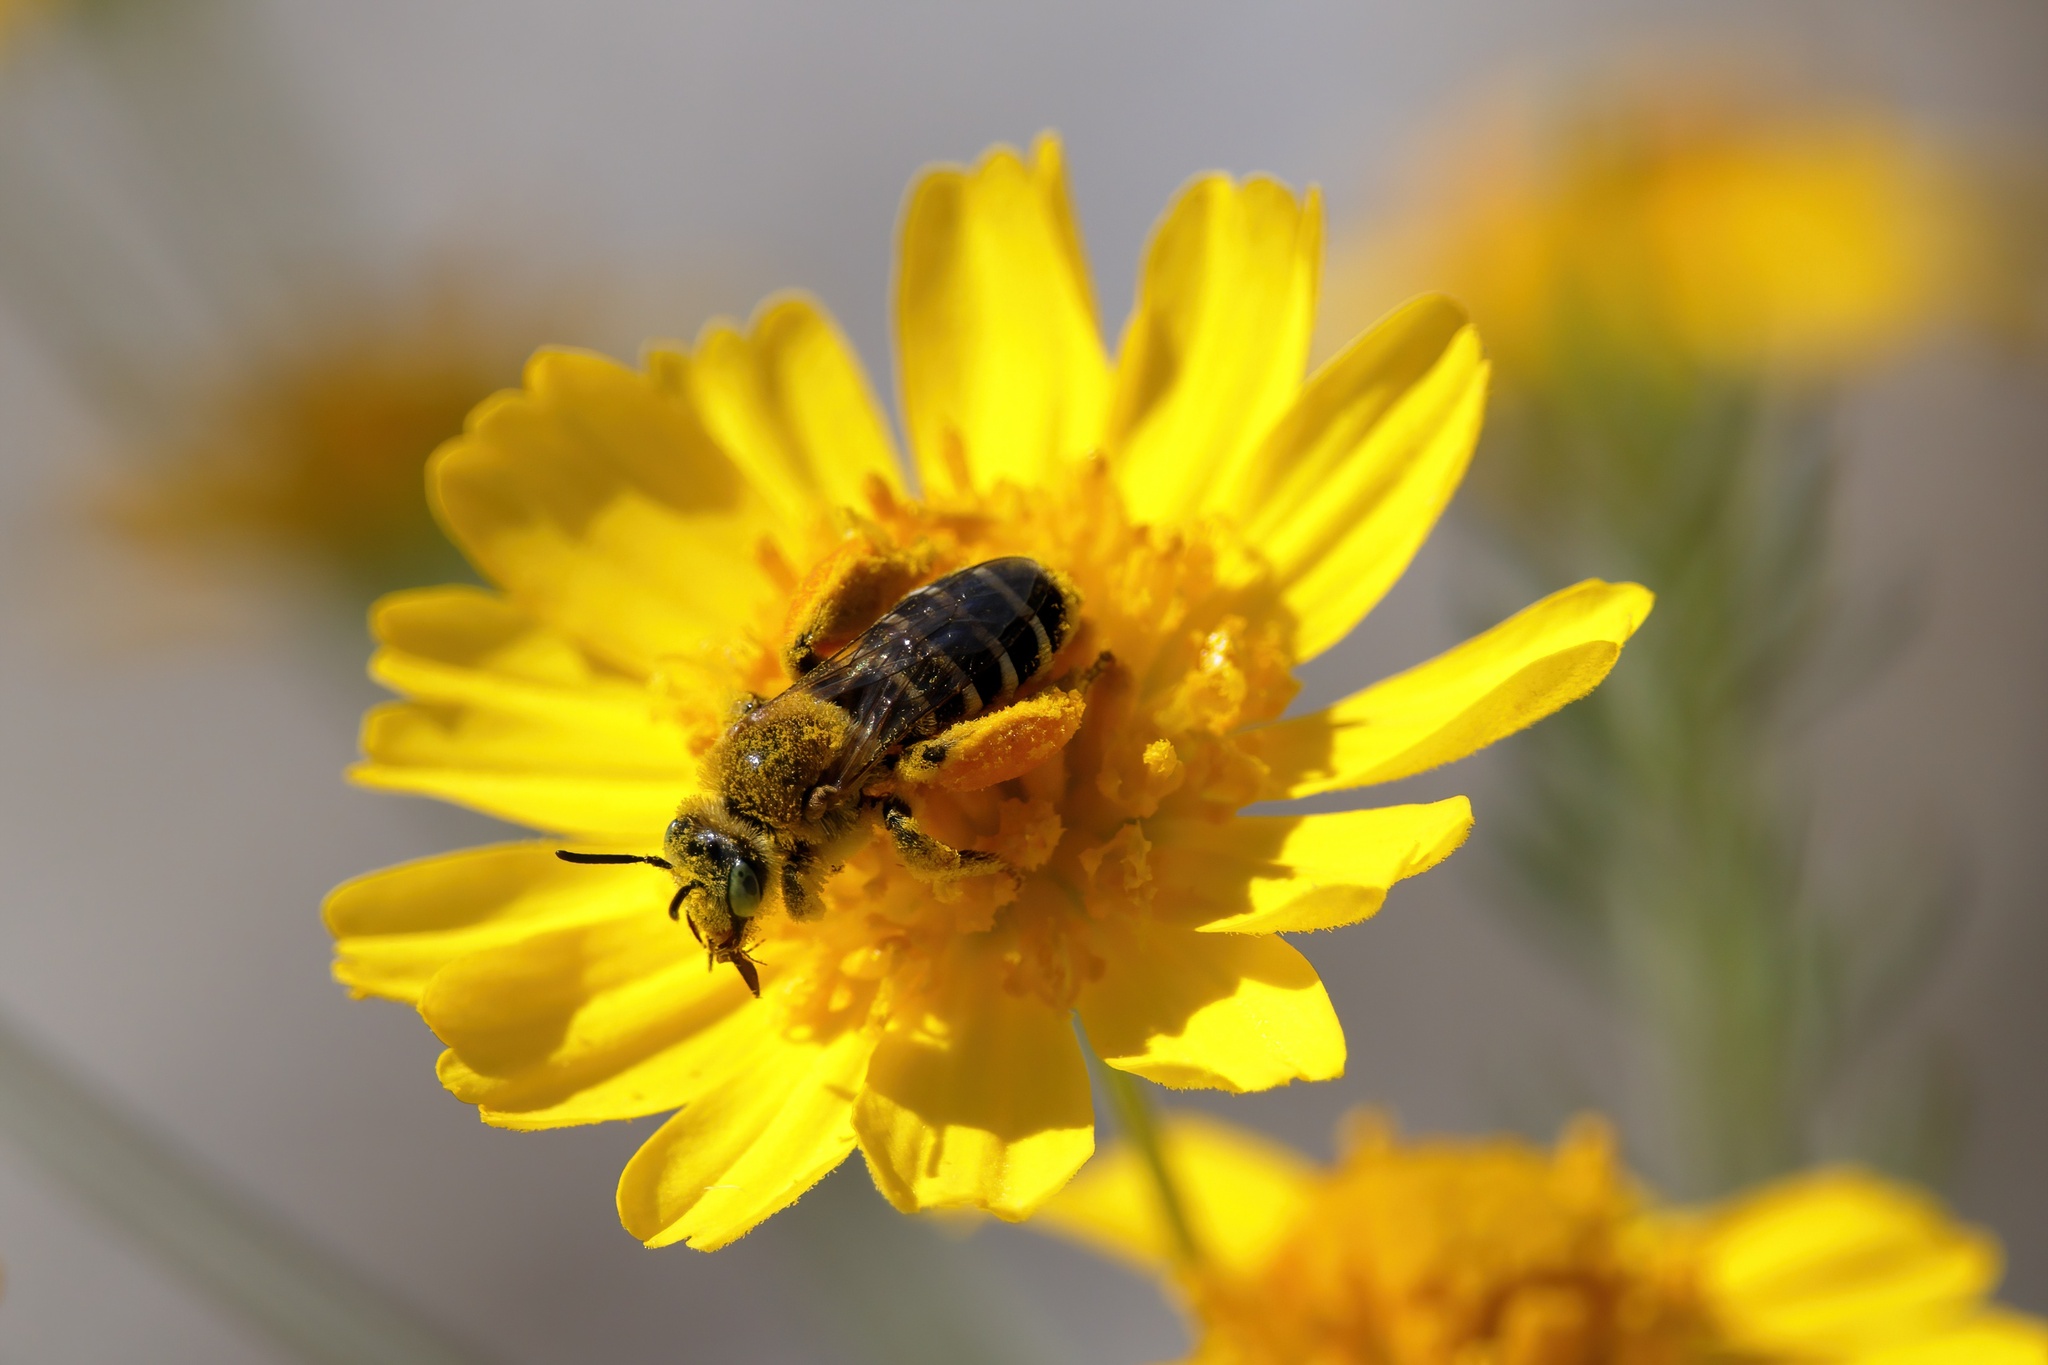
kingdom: Animalia
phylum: Arthropoda
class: Insecta
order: Hymenoptera
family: Melittidae
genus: Hesperapis
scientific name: Hesperapis oraria
